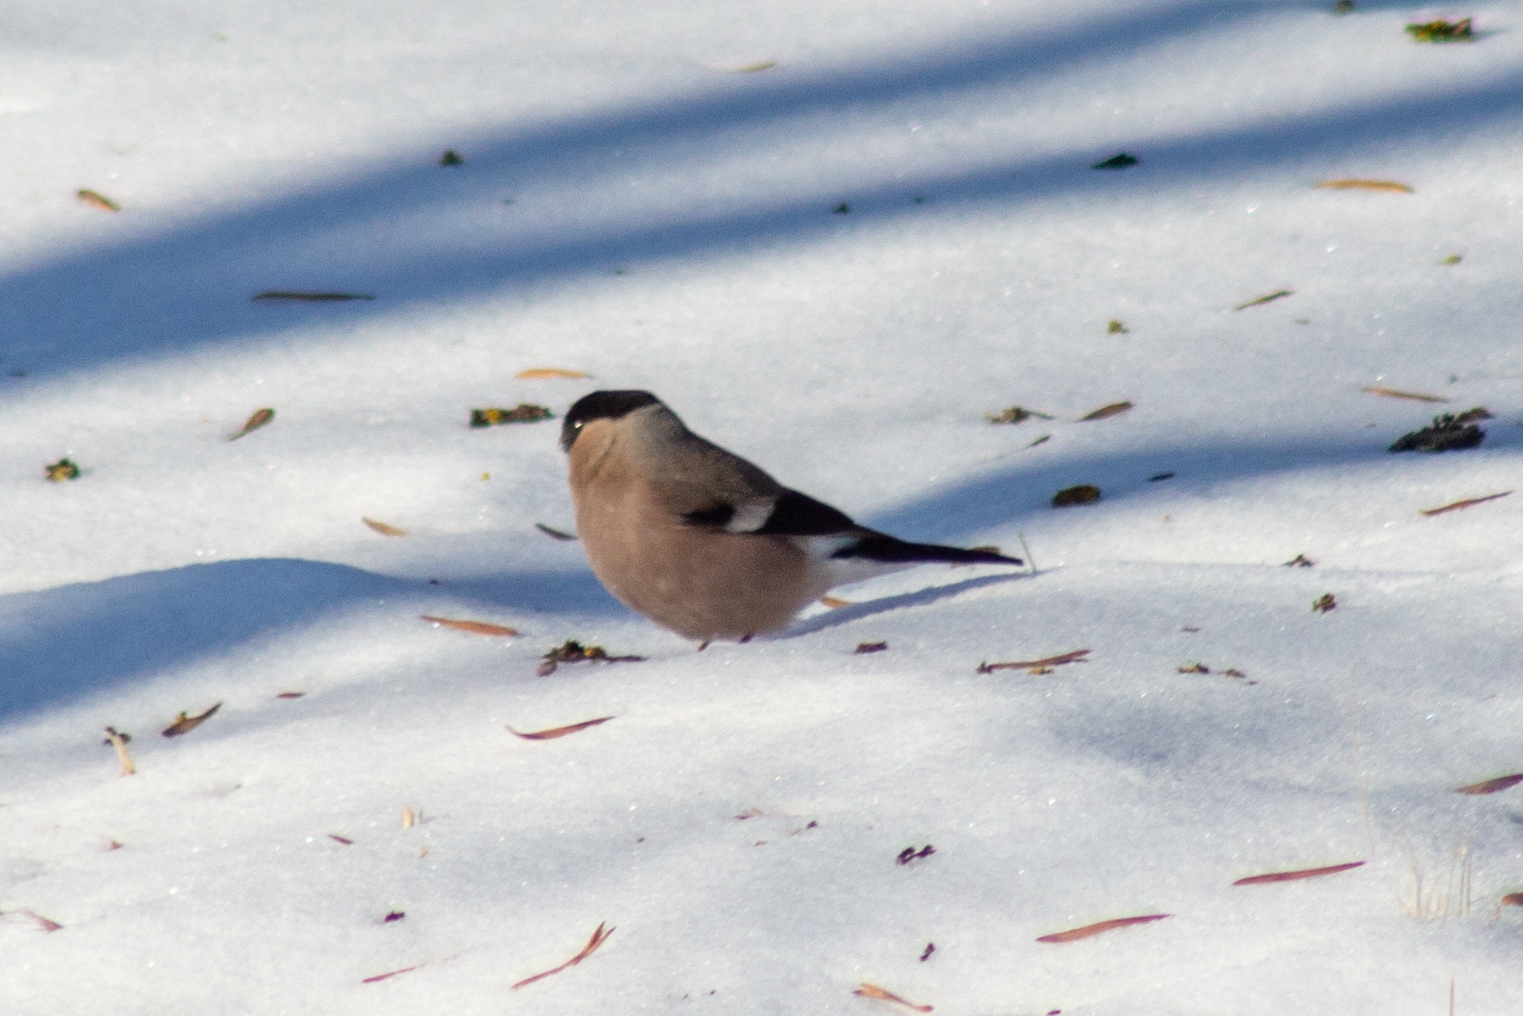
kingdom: Animalia
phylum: Chordata
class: Aves
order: Passeriformes
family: Fringillidae
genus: Pyrrhula
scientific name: Pyrrhula pyrrhula
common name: Eurasian bullfinch
